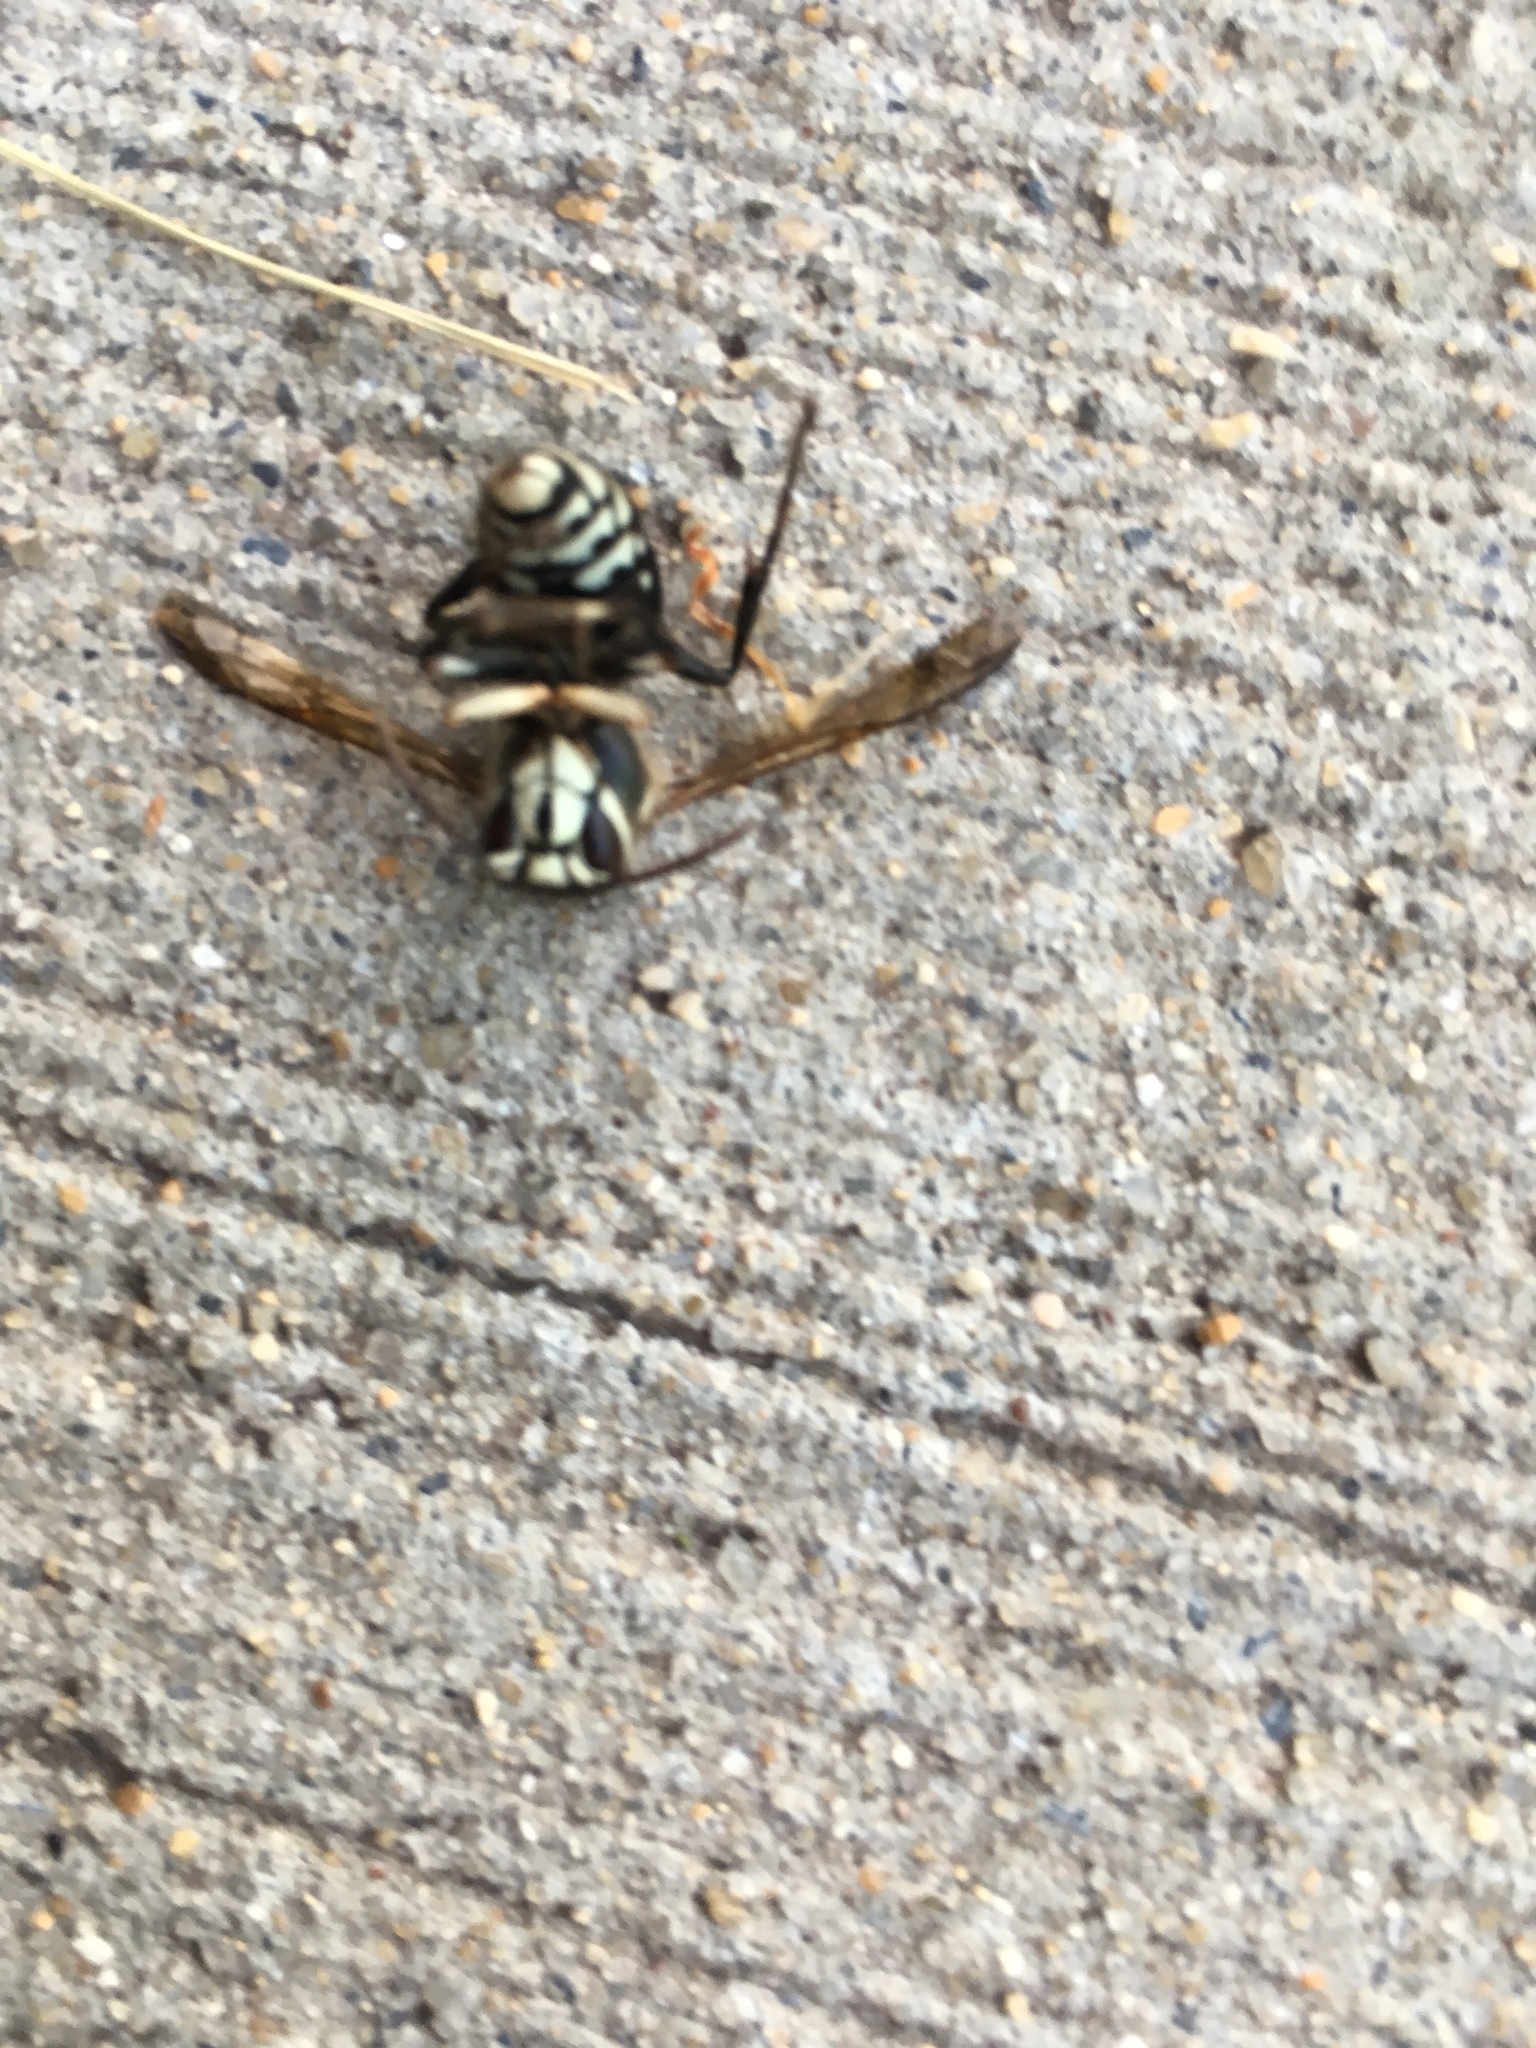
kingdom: Animalia
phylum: Arthropoda
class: Insecta
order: Hymenoptera
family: Vespidae
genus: Dolichovespula
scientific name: Dolichovespula maculata
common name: Bald-faced hornet
